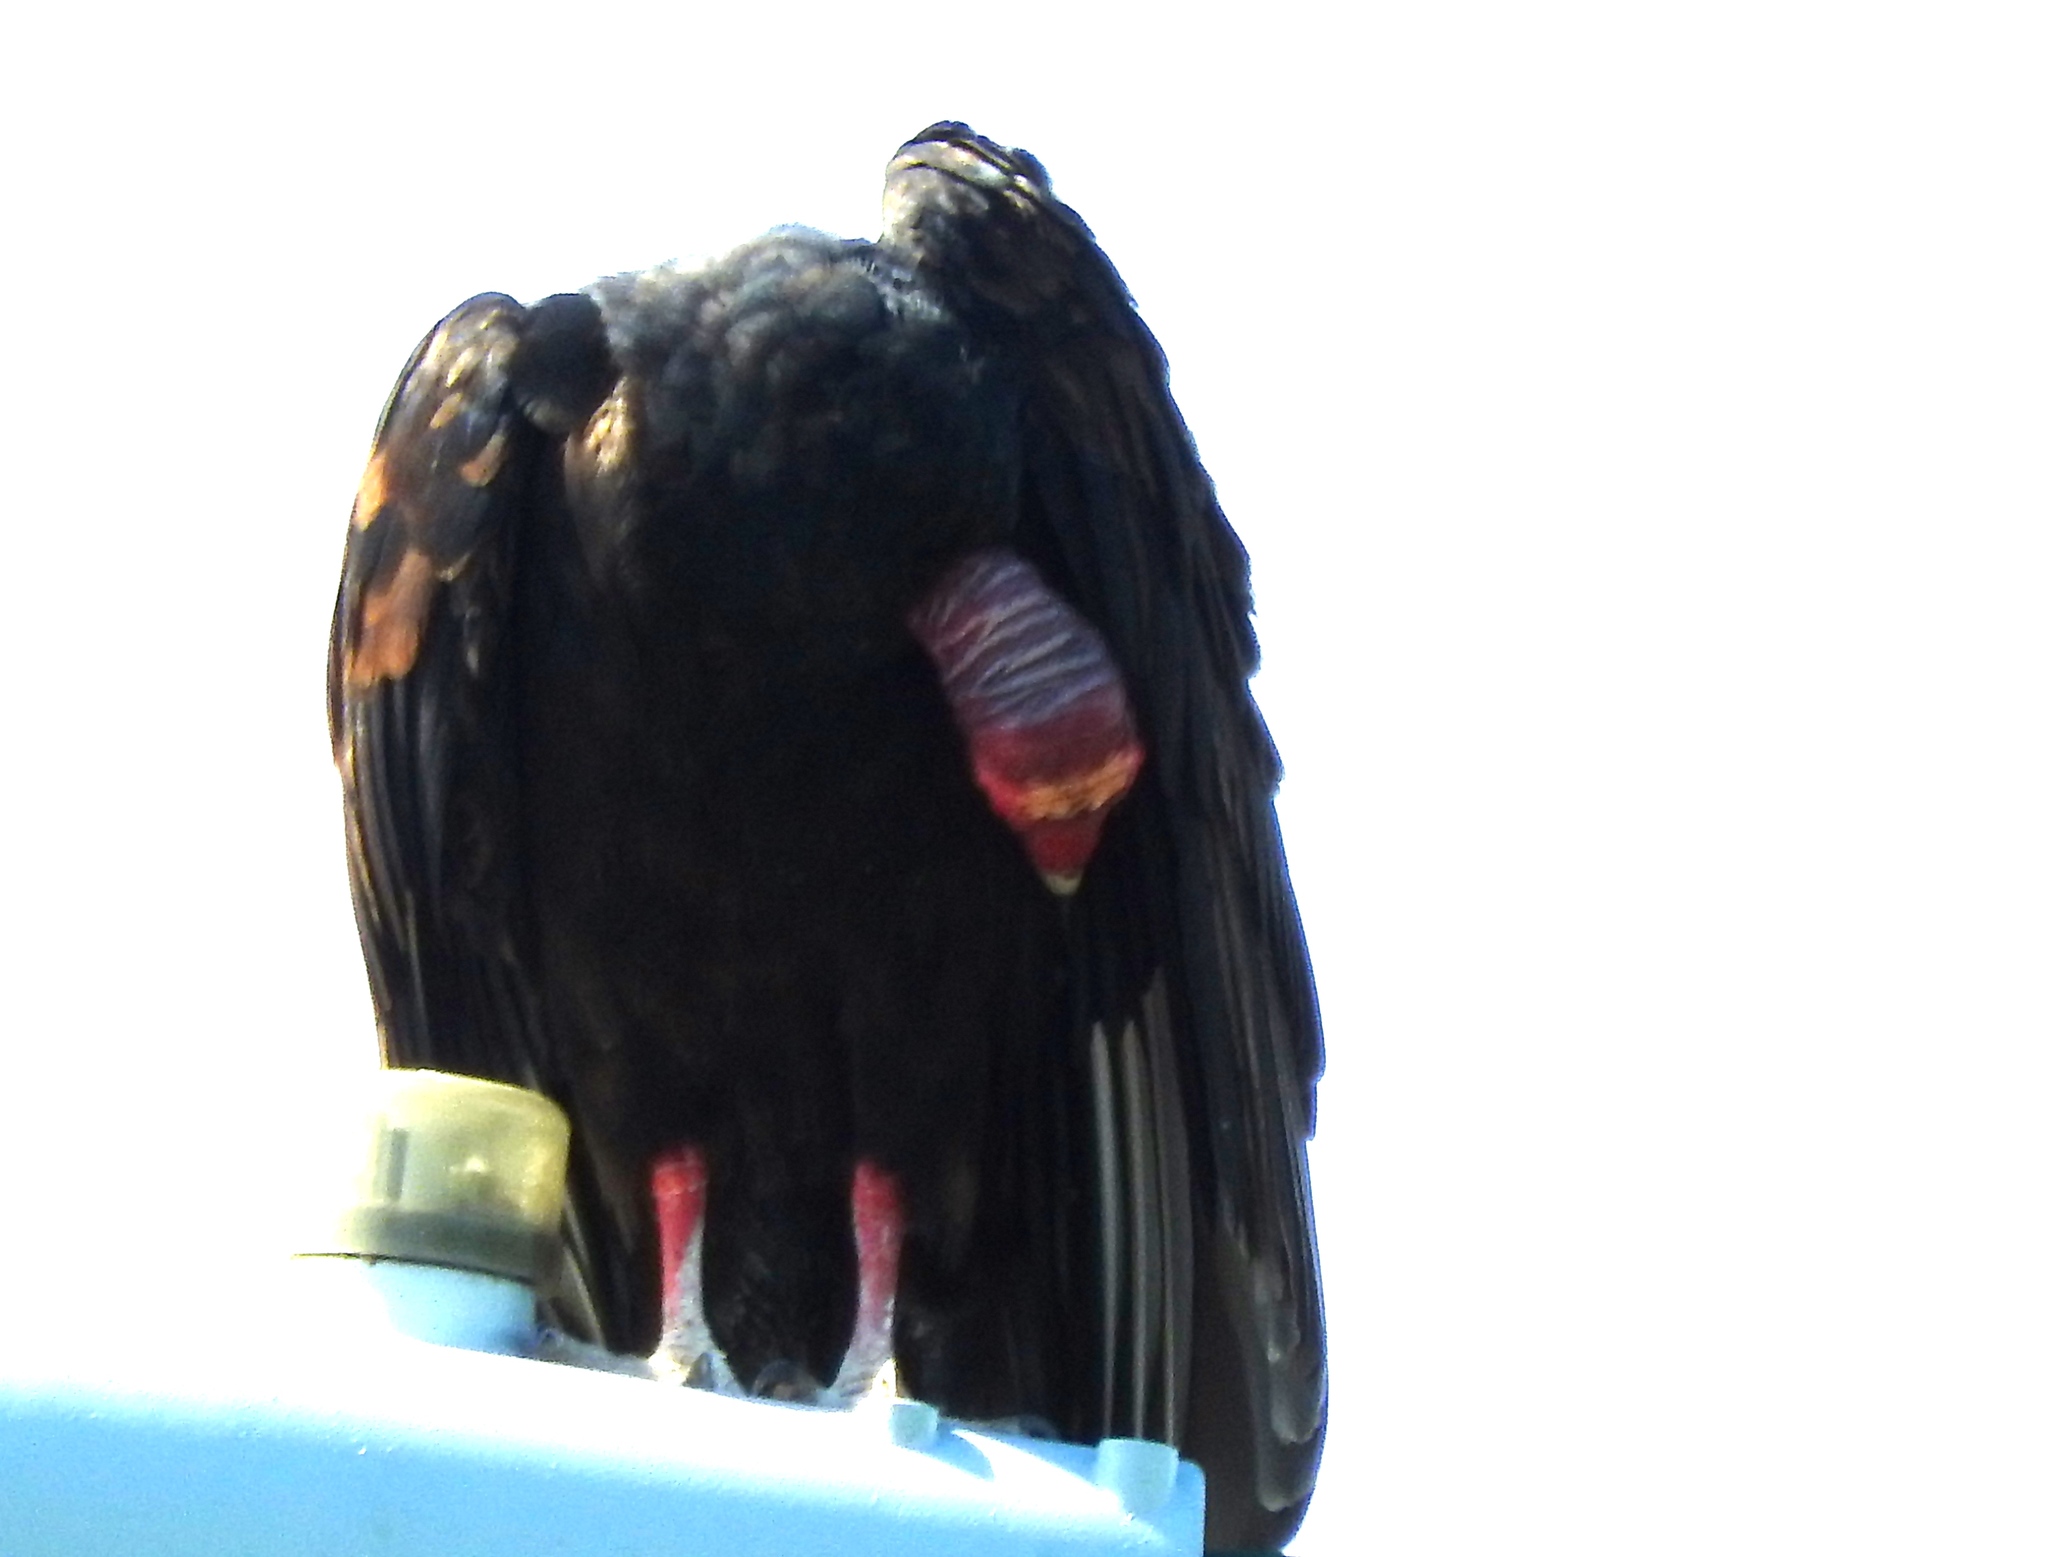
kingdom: Animalia
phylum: Chordata
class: Aves
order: Accipitriformes
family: Cathartidae
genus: Cathartes
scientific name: Cathartes aura
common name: Turkey vulture
